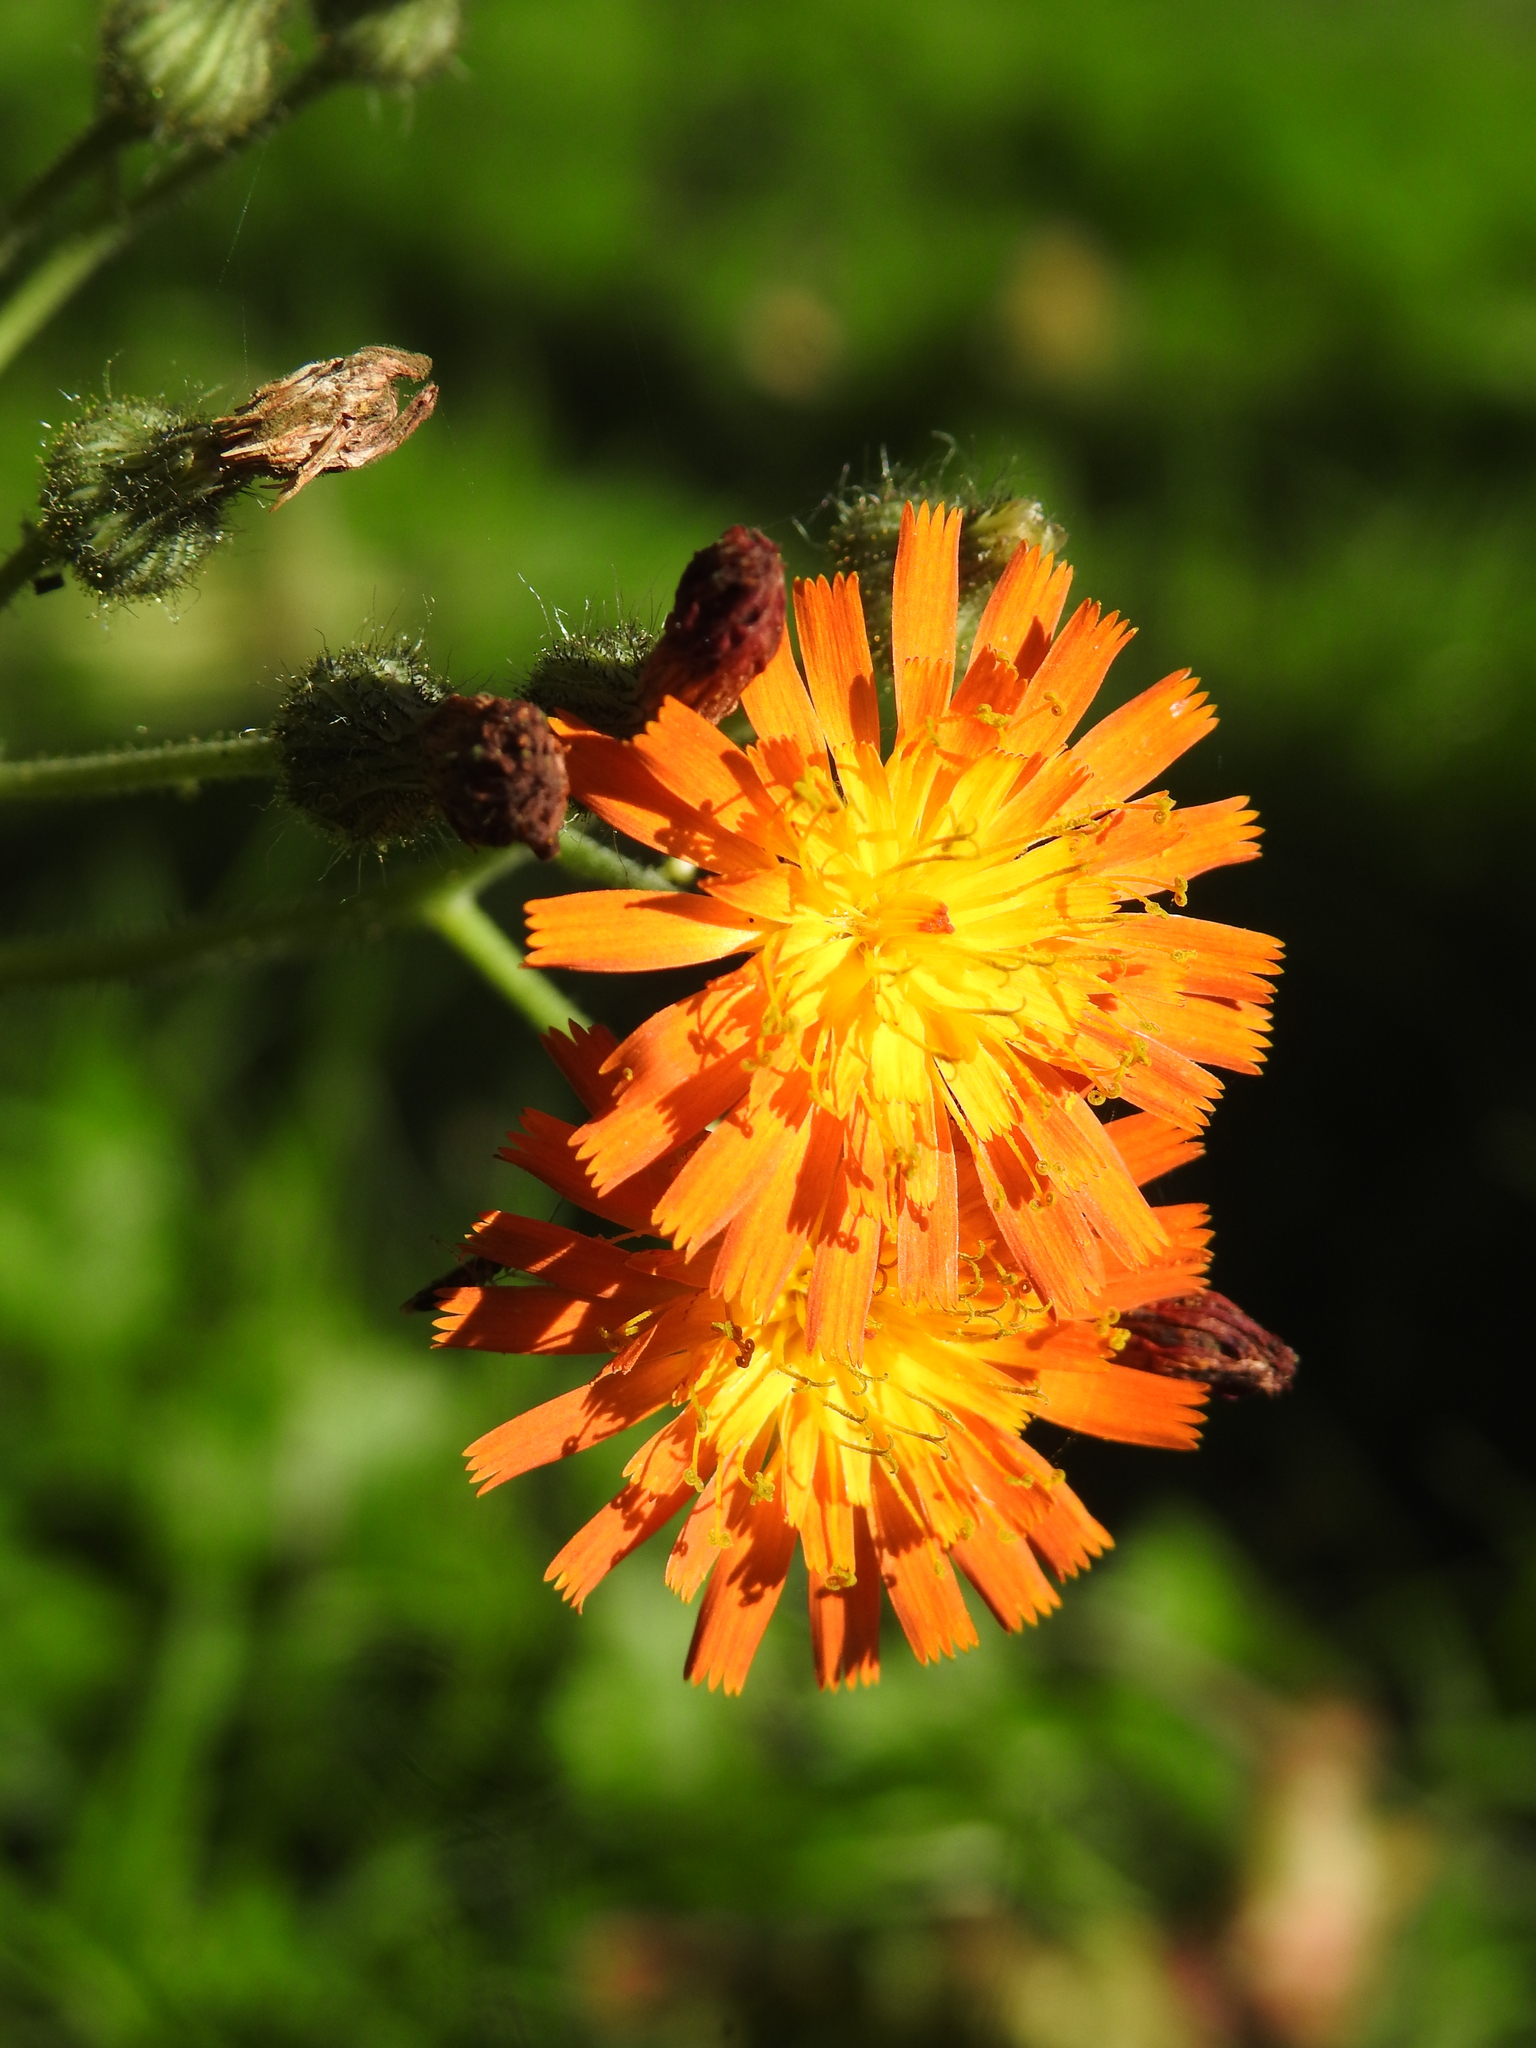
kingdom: Plantae
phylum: Tracheophyta
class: Magnoliopsida
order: Asterales
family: Asteraceae
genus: Pilosella
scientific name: Pilosella aurantiaca
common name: Fox-and-cubs
